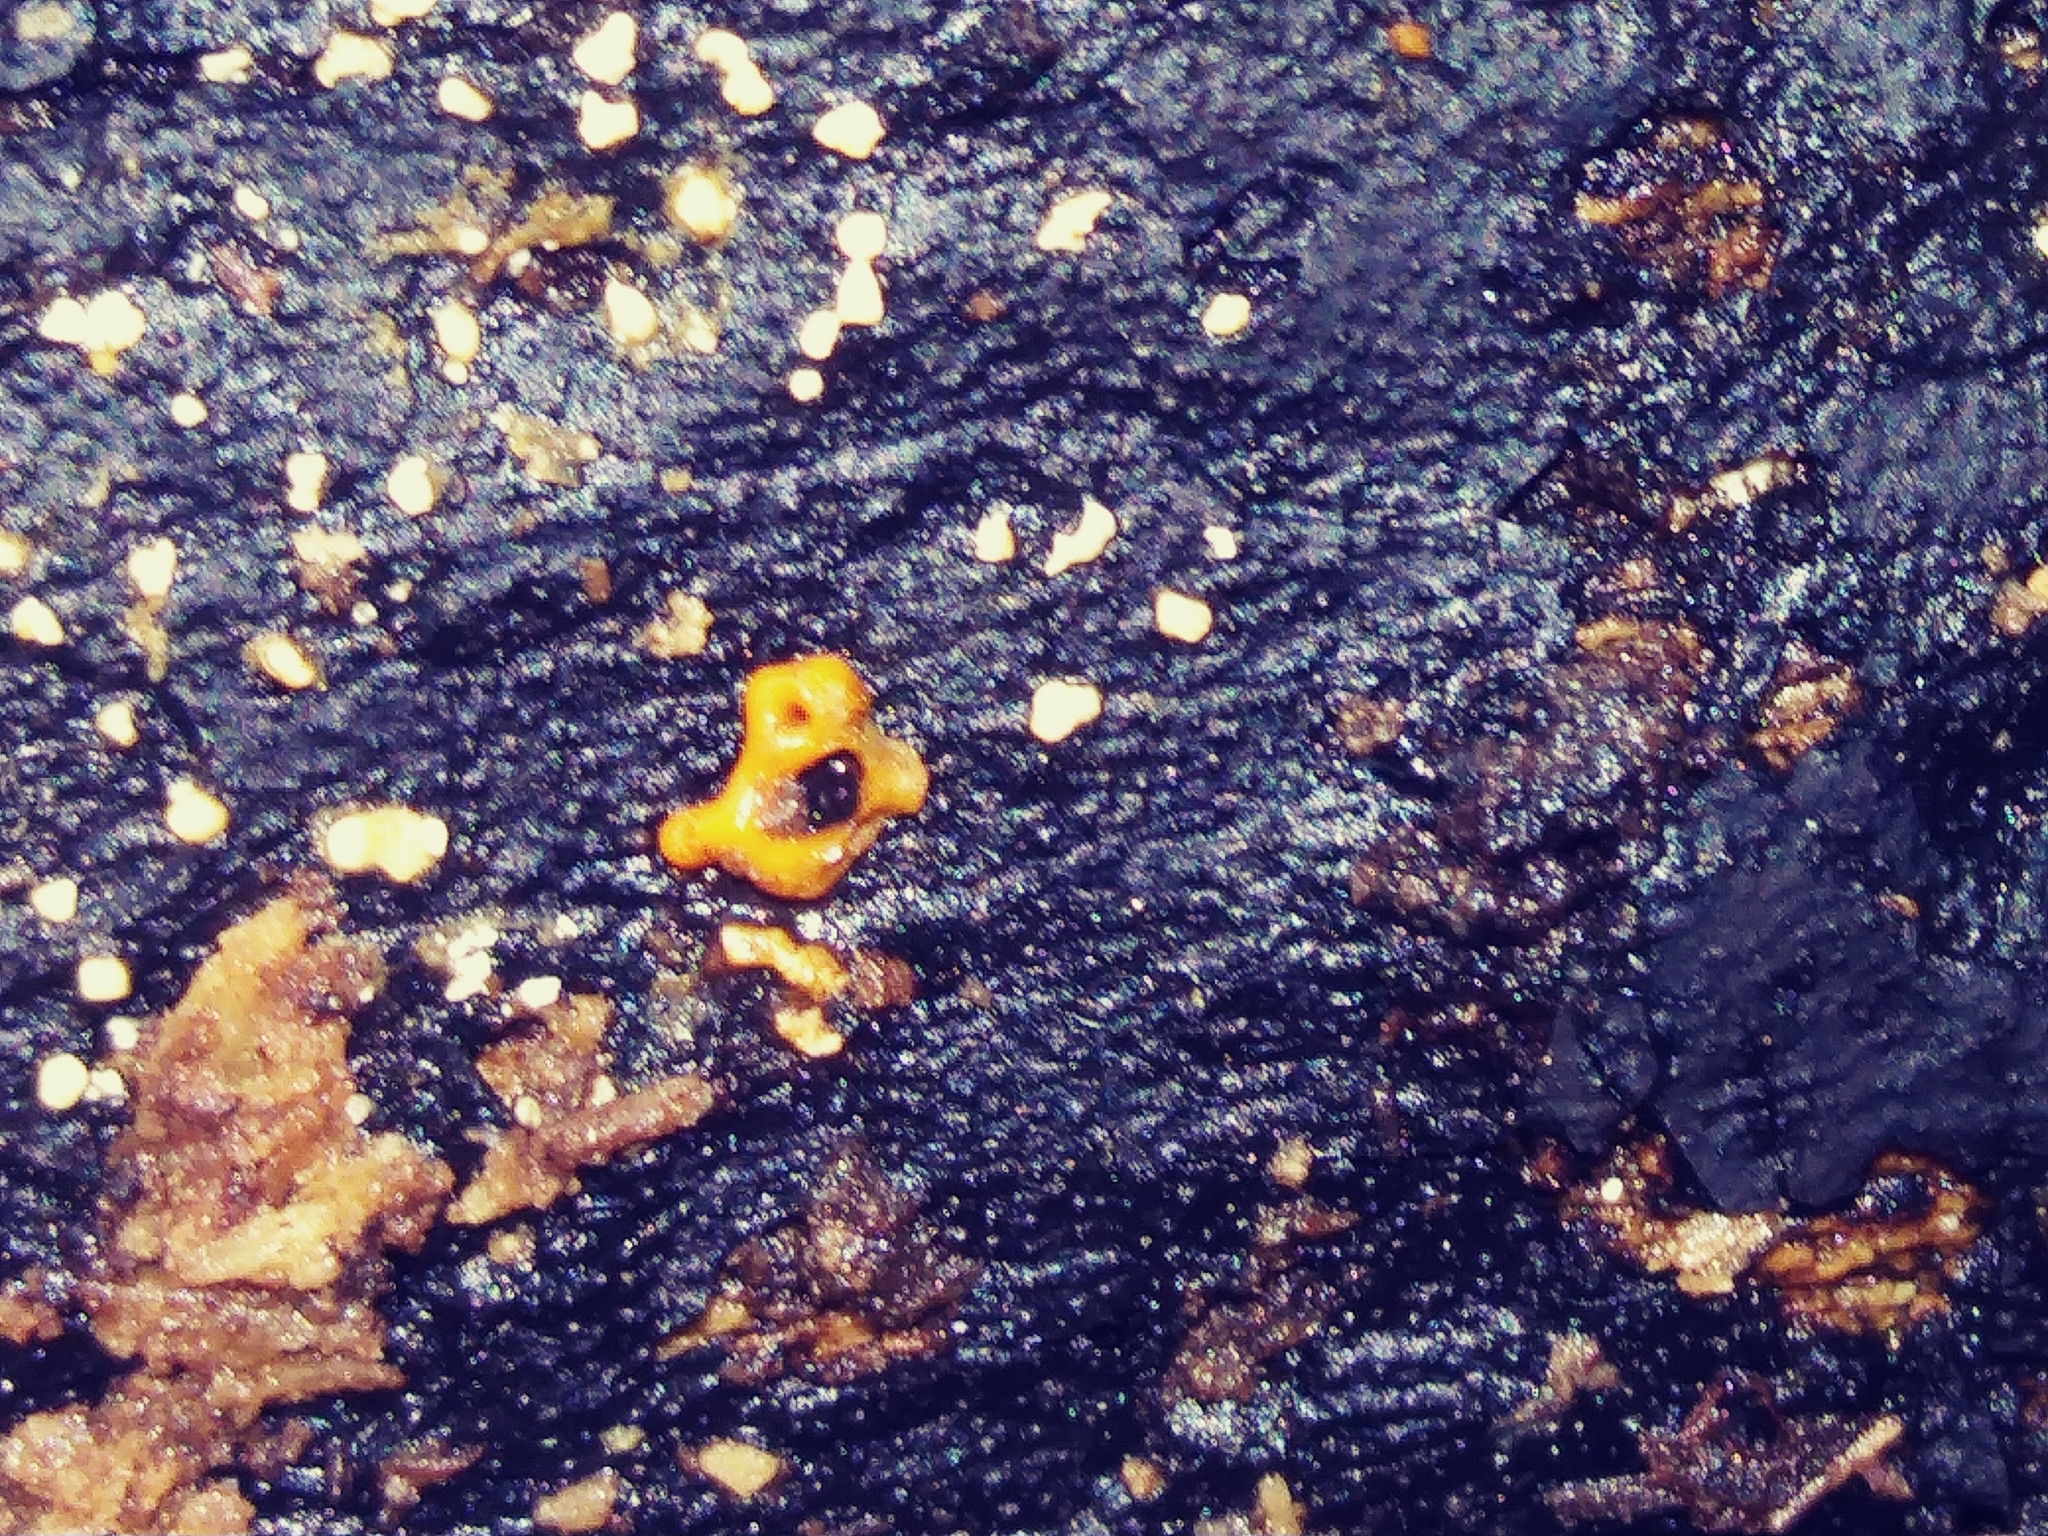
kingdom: Protozoa
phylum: Mycetozoa
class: Myxomycetes
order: Trichiales
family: Arcyriaceae
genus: Hemitrichia
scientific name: Hemitrichia serpula
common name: Pretzel slime mold
